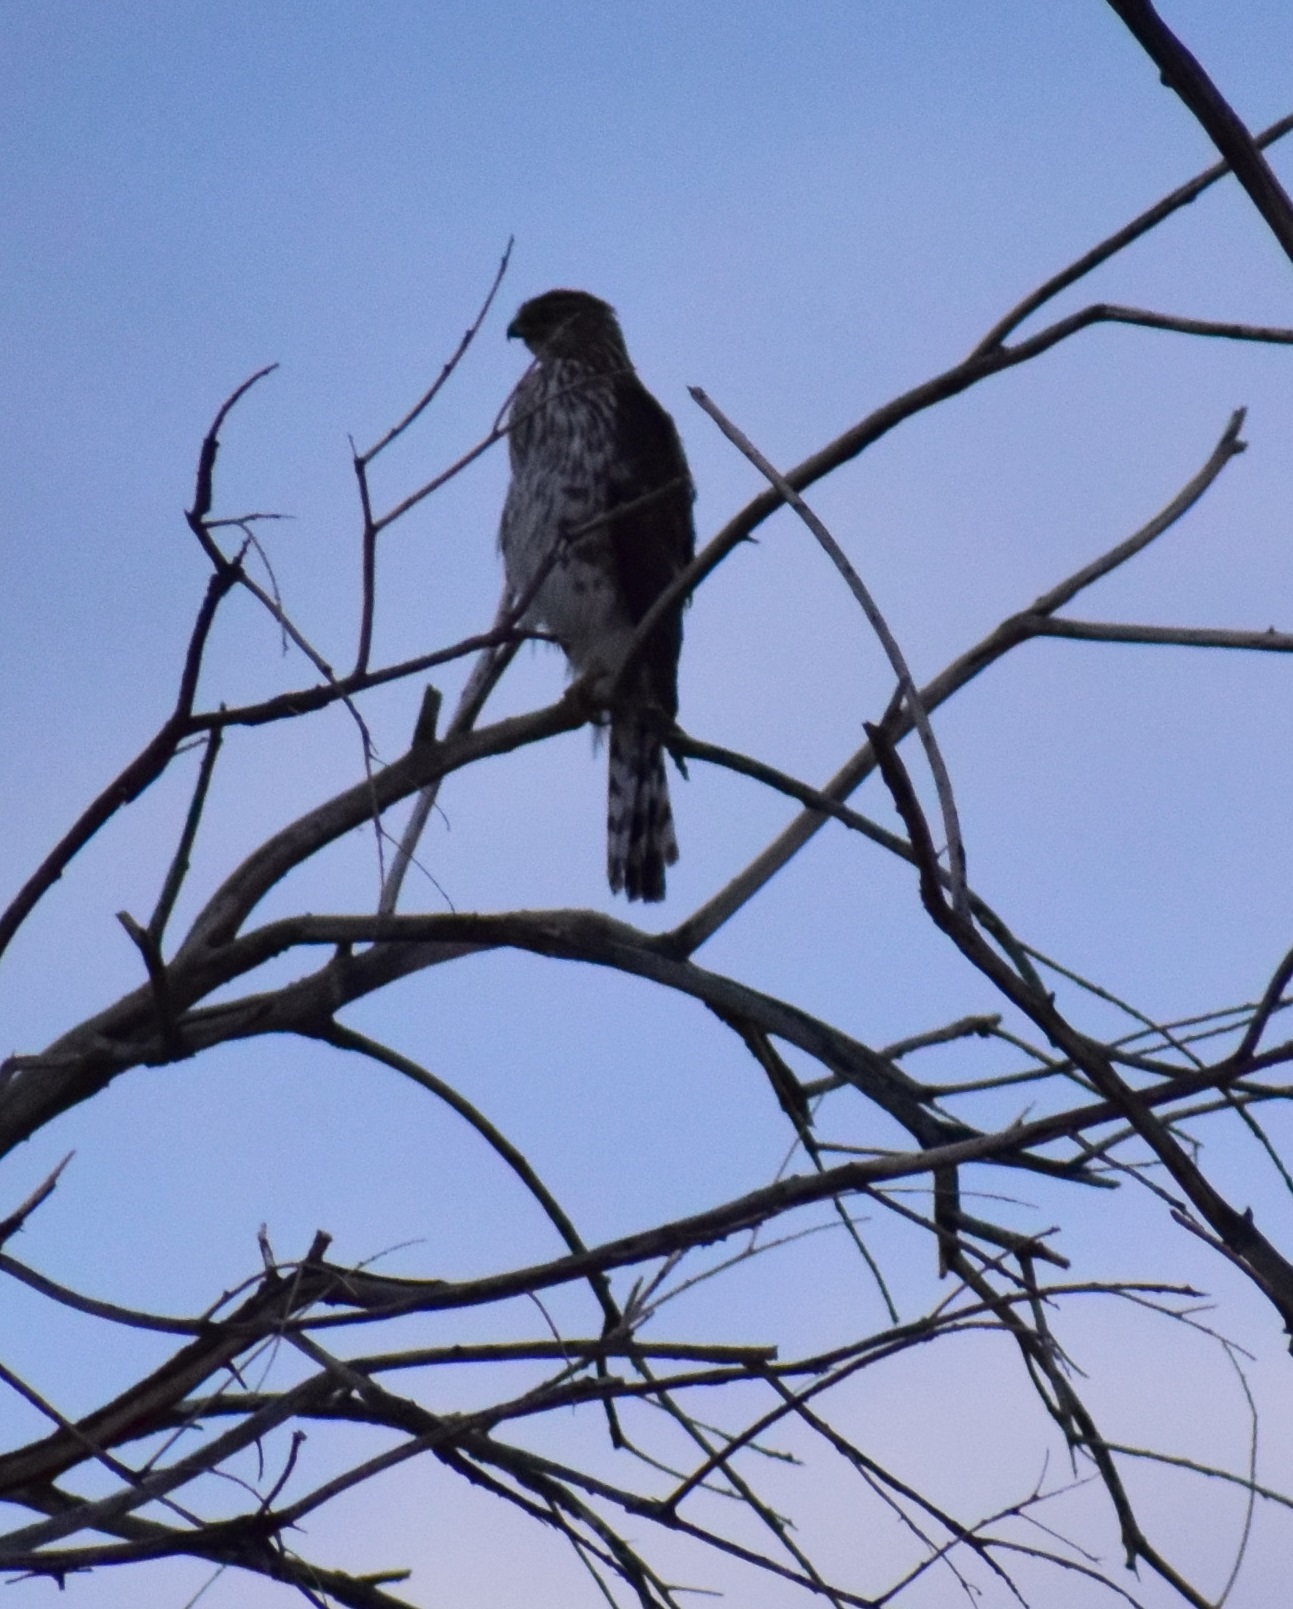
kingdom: Animalia
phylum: Chordata
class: Aves
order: Accipitriformes
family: Accipitridae
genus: Accipiter
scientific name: Accipiter cooperii
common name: Cooper's hawk
